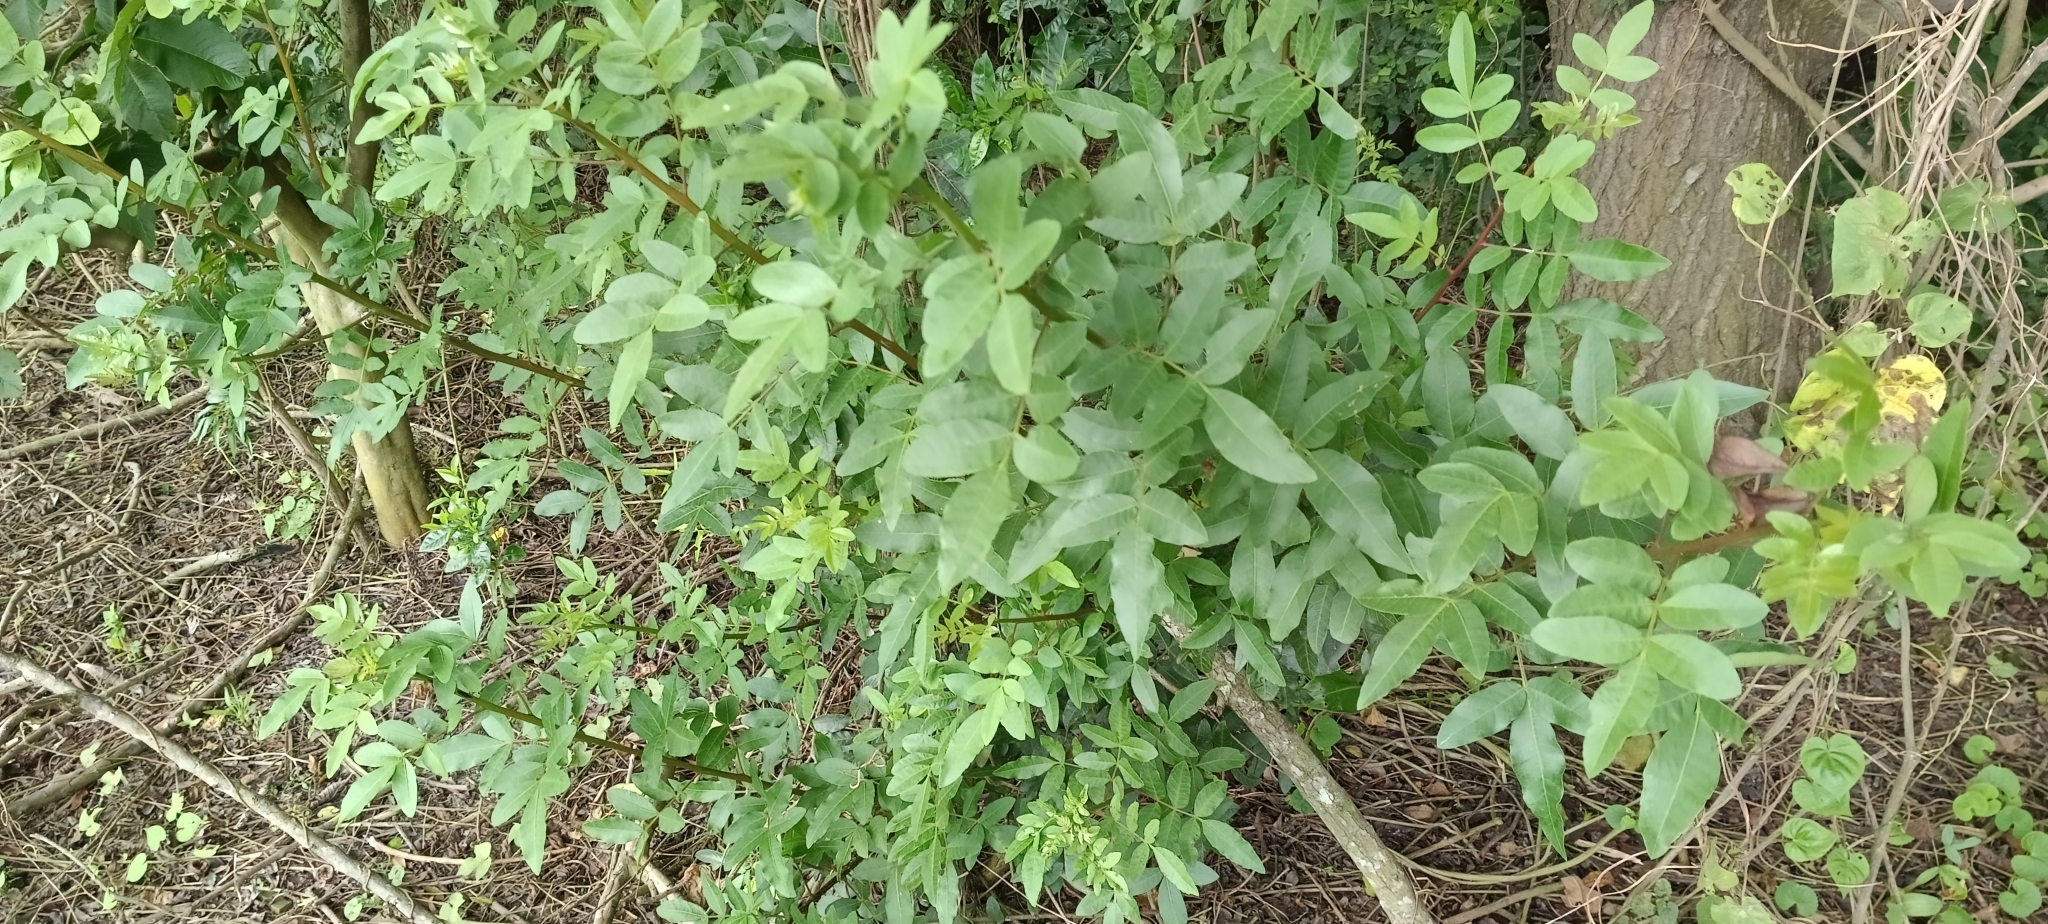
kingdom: Plantae
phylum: Tracheophyta
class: Magnoliopsida
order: Sapindales
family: Anacardiaceae
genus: Schinus
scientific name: Schinus terebinthifolia
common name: Brazilian peppertree
